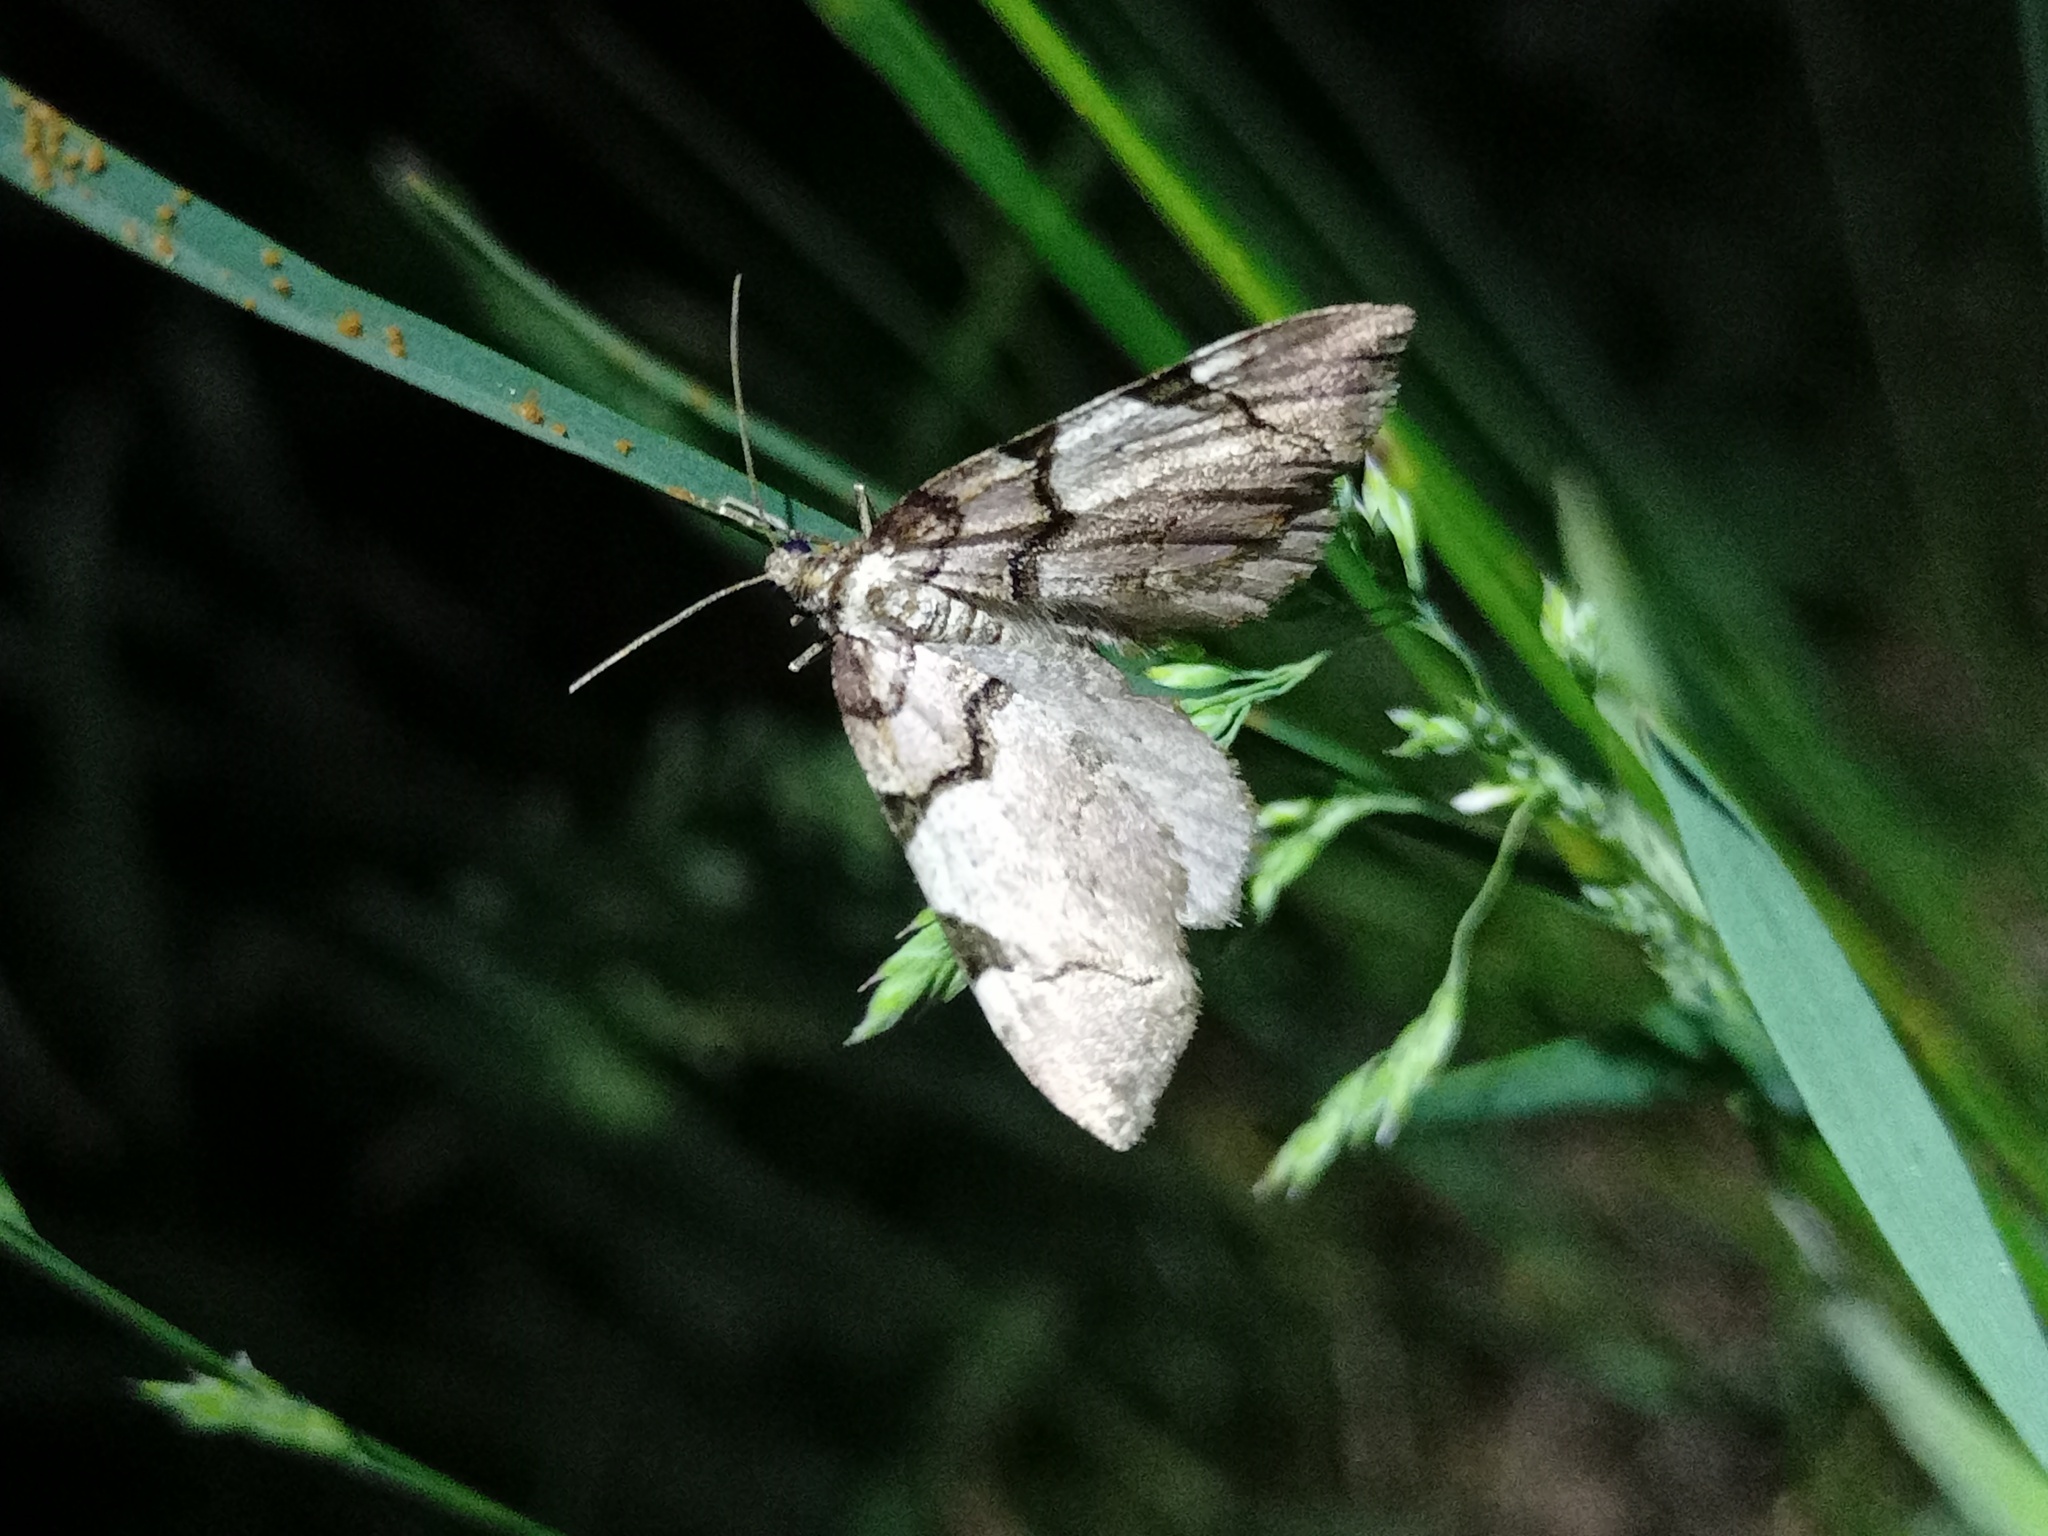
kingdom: Animalia
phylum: Arthropoda
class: Insecta
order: Lepidoptera
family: Geometridae
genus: Anticlea
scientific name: Anticlea derivata
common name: Streamer
